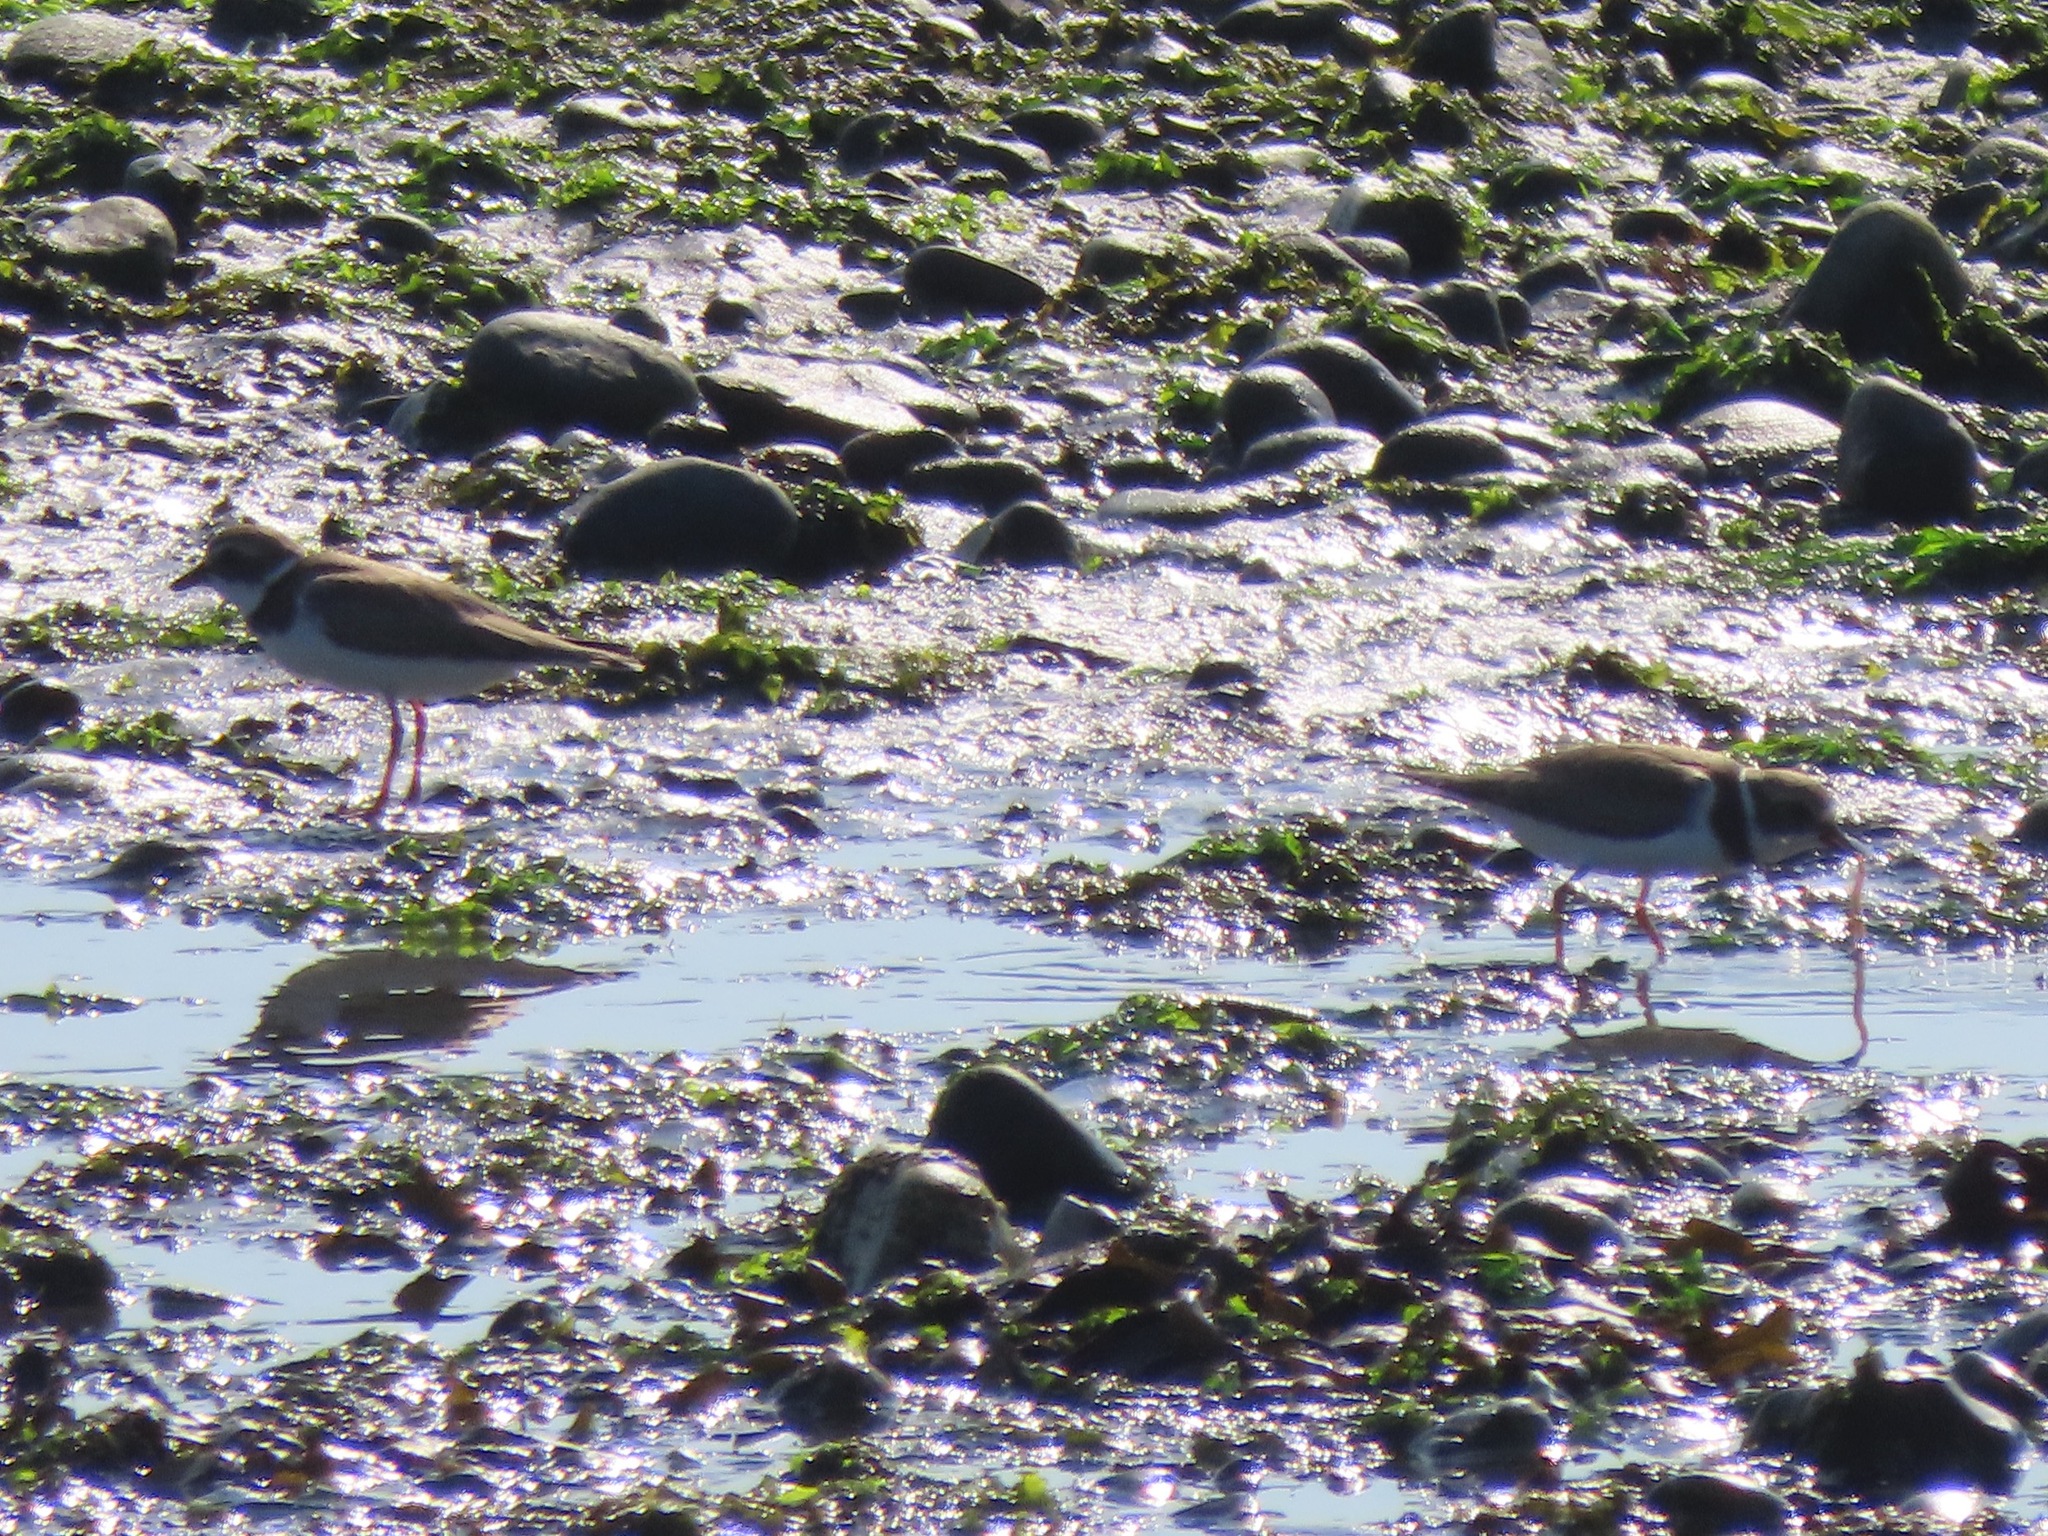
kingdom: Animalia
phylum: Chordata
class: Aves
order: Charadriiformes
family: Charadriidae
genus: Charadrius
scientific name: Charadrius semipalmatus
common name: Semipalmated plover
